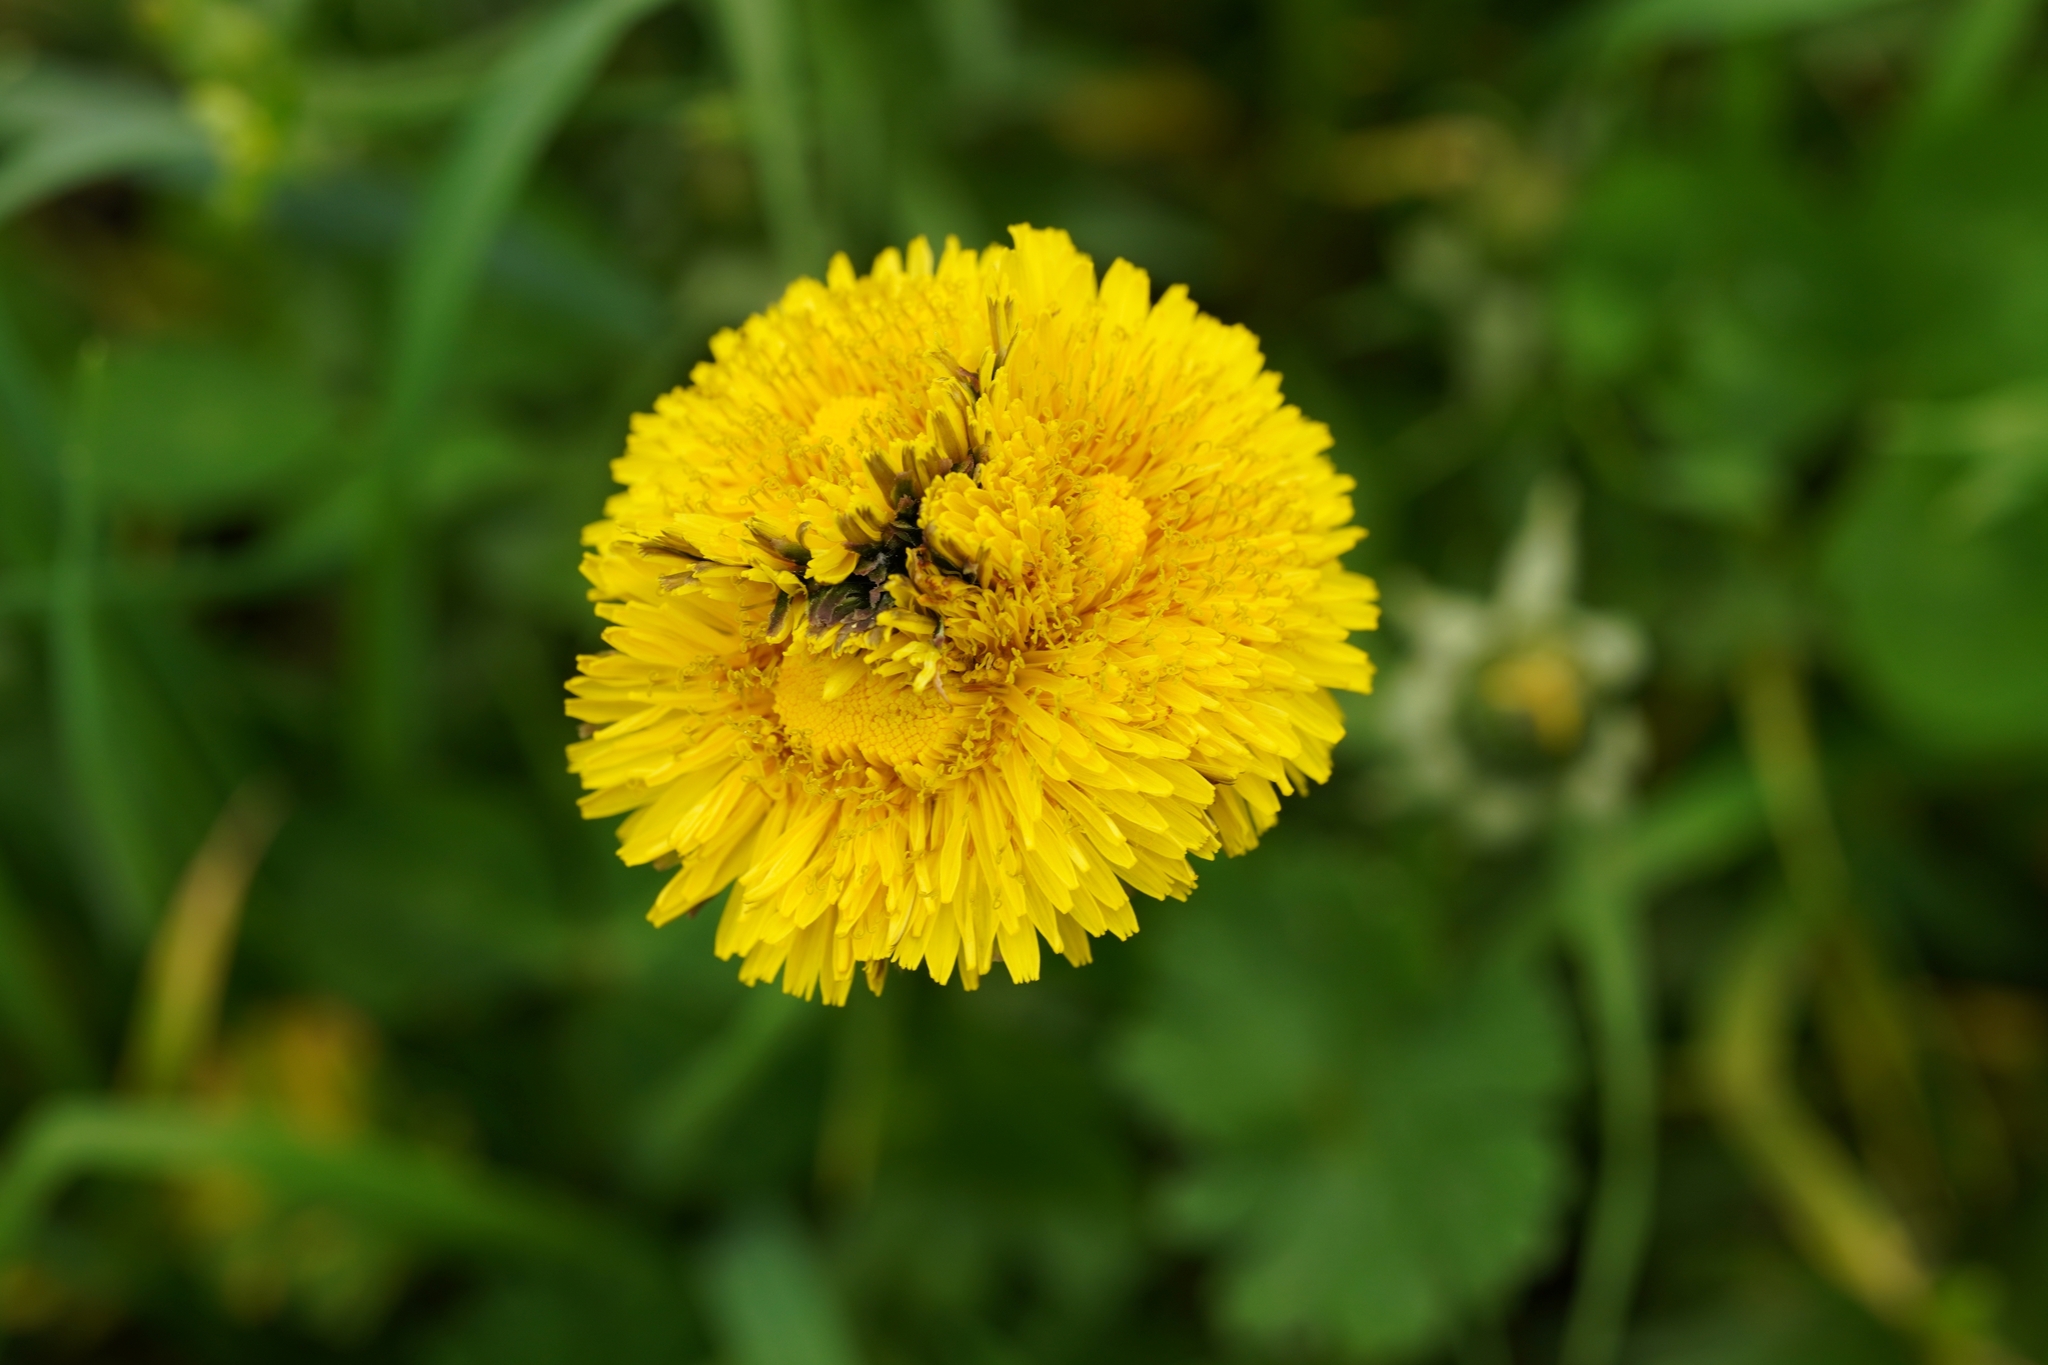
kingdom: Plantae
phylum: Tracheophyta
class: Magnoliopsida
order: Asterales
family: Asteraceae
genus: Taraxacum
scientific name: Taraxacum
